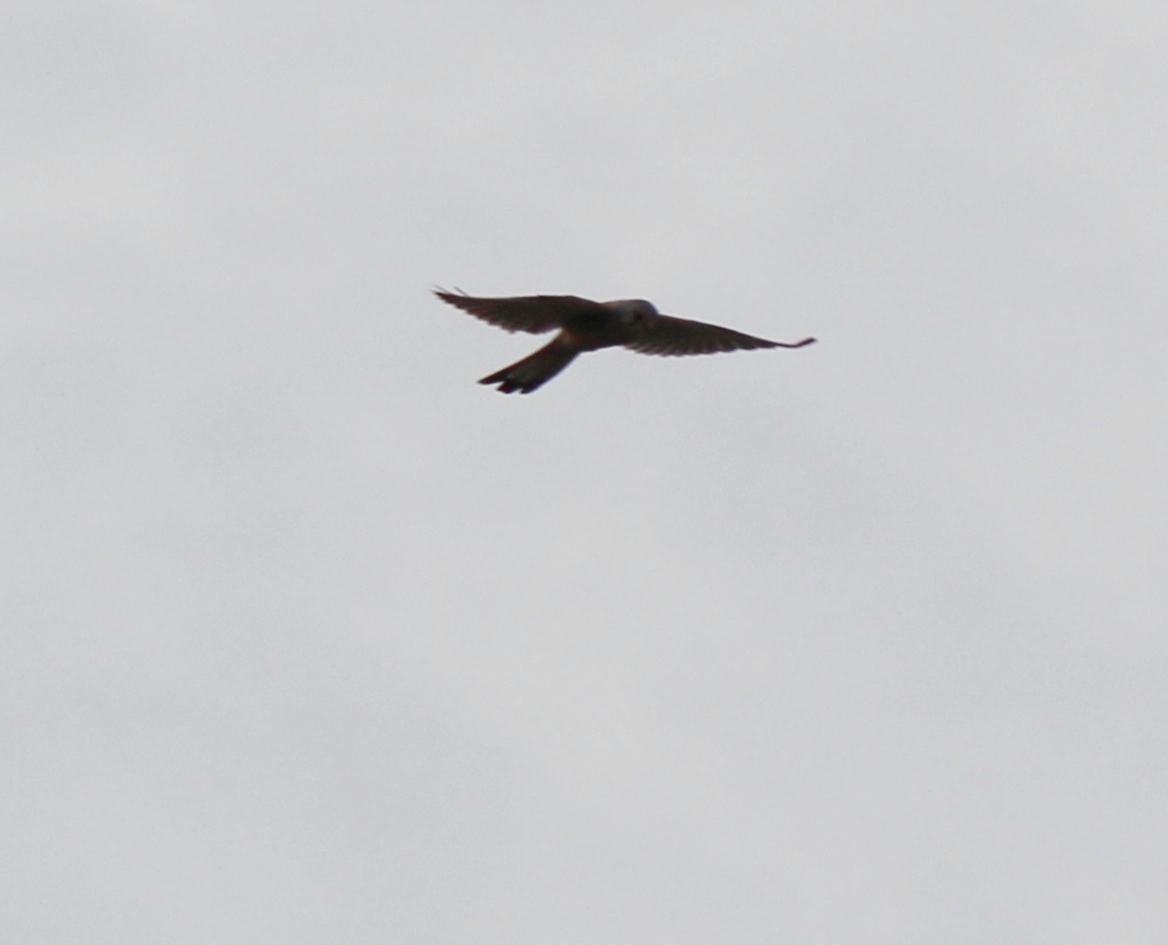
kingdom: Animalia
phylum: Chordata
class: Aves
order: Falconiformes
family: Falconidae
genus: Falco
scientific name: Falco tinnunculus
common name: Common kestrel
